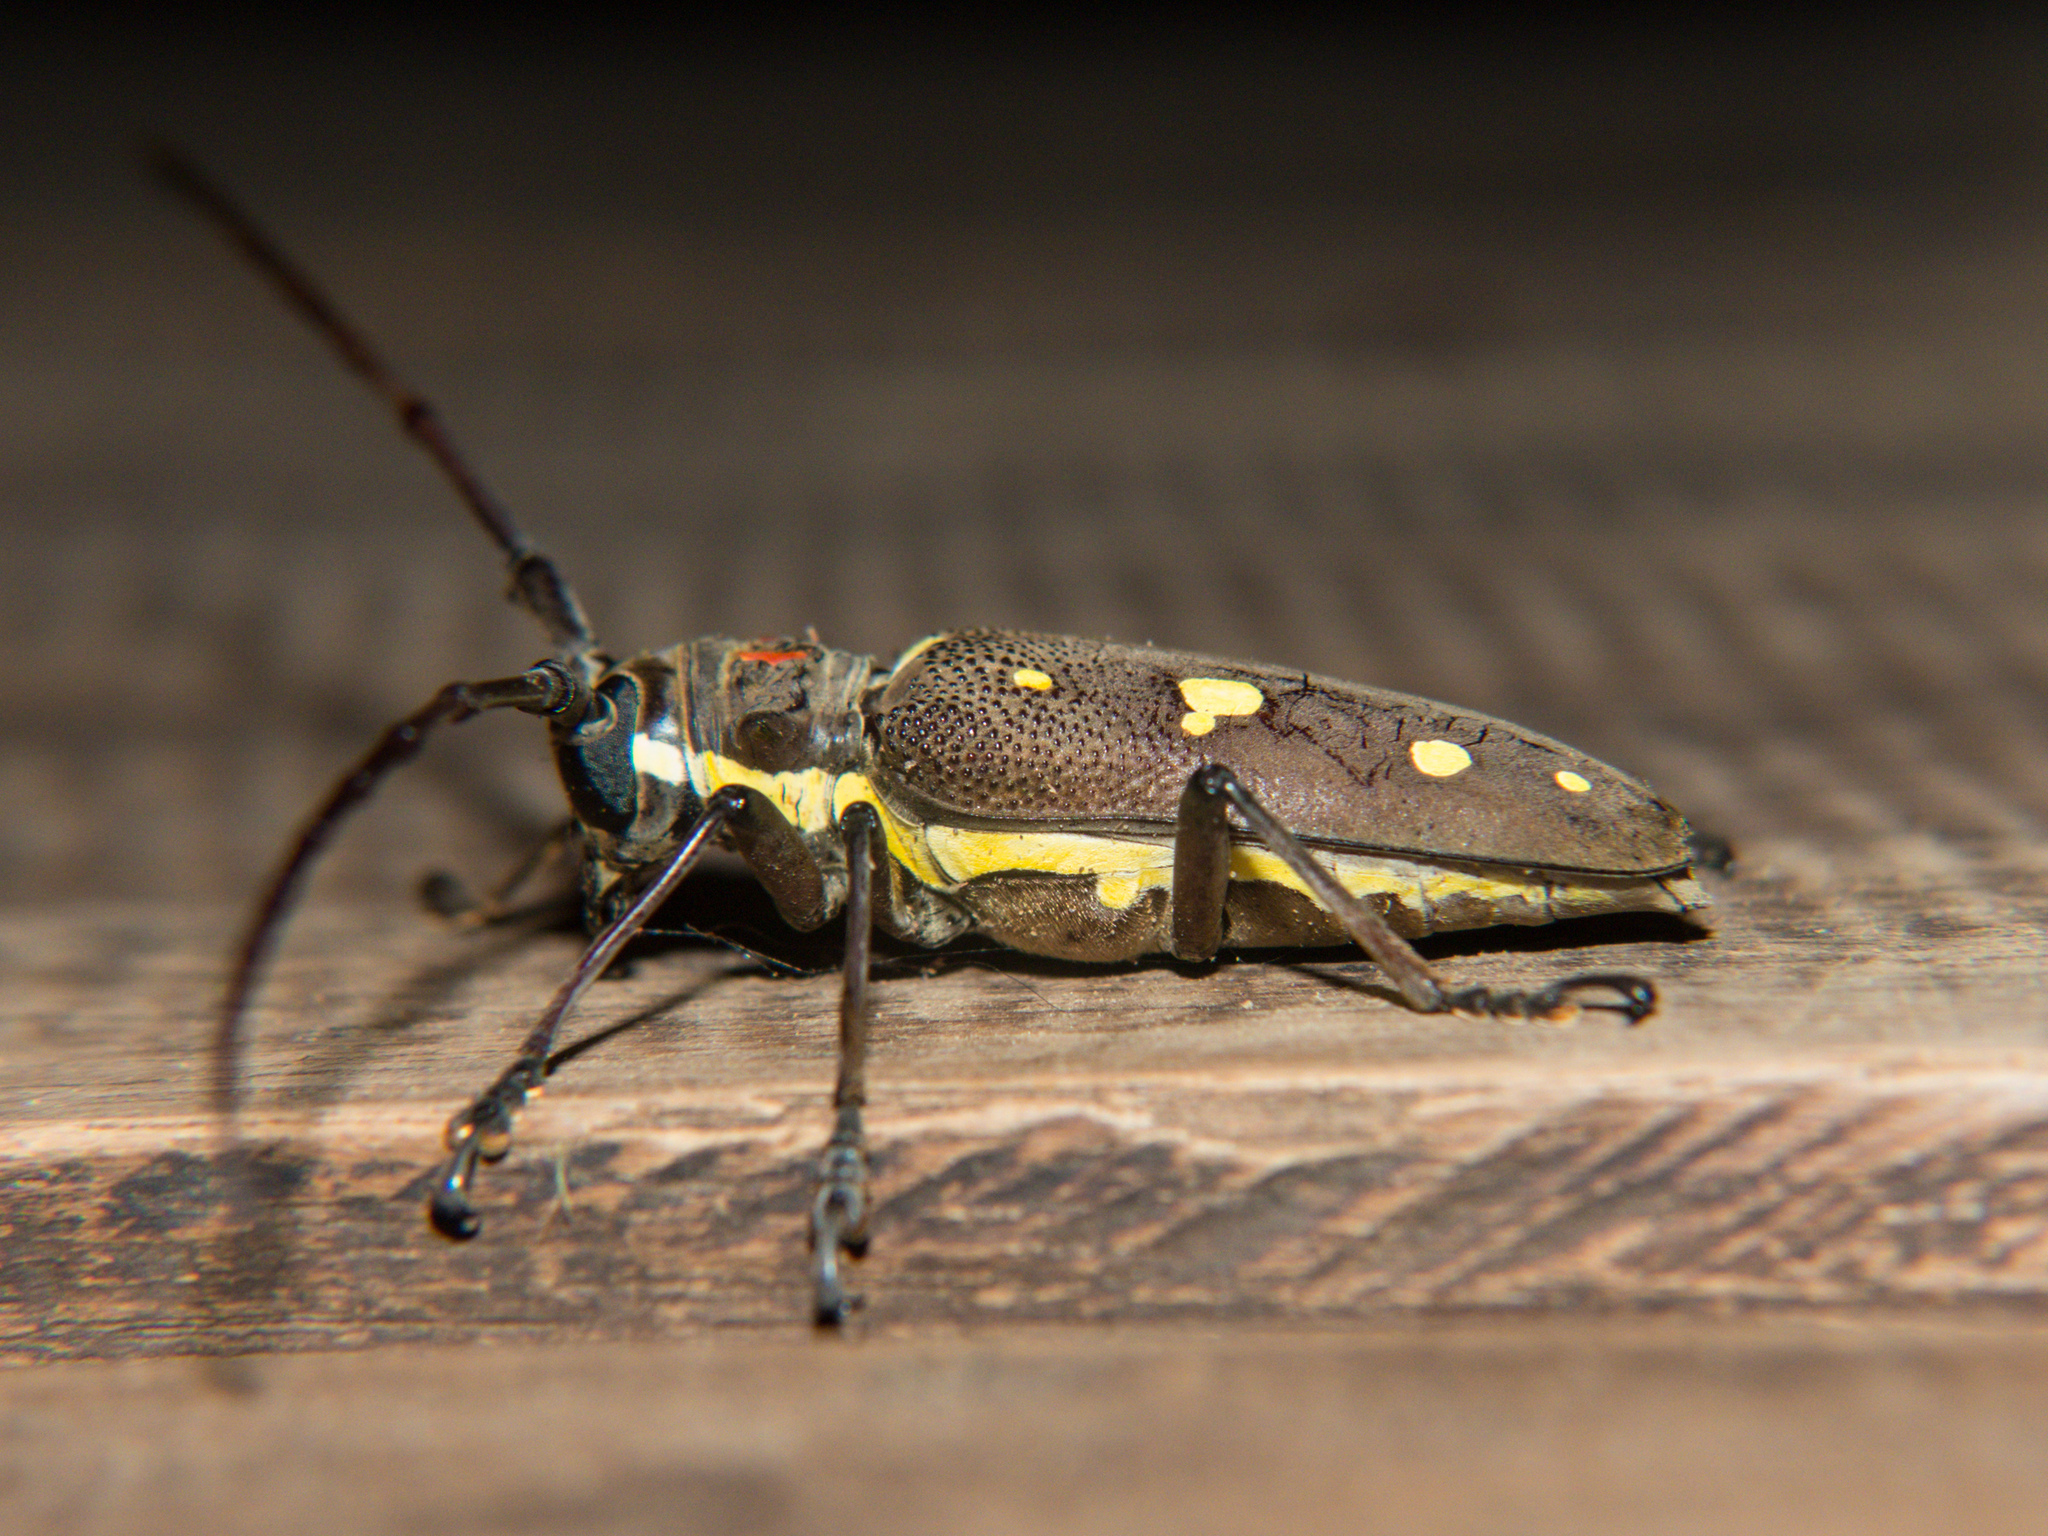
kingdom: Animalia
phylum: Arthropoda
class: Insecta
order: Coleoptera
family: Cerambycidae
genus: Batocera
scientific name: Batocera rubus
